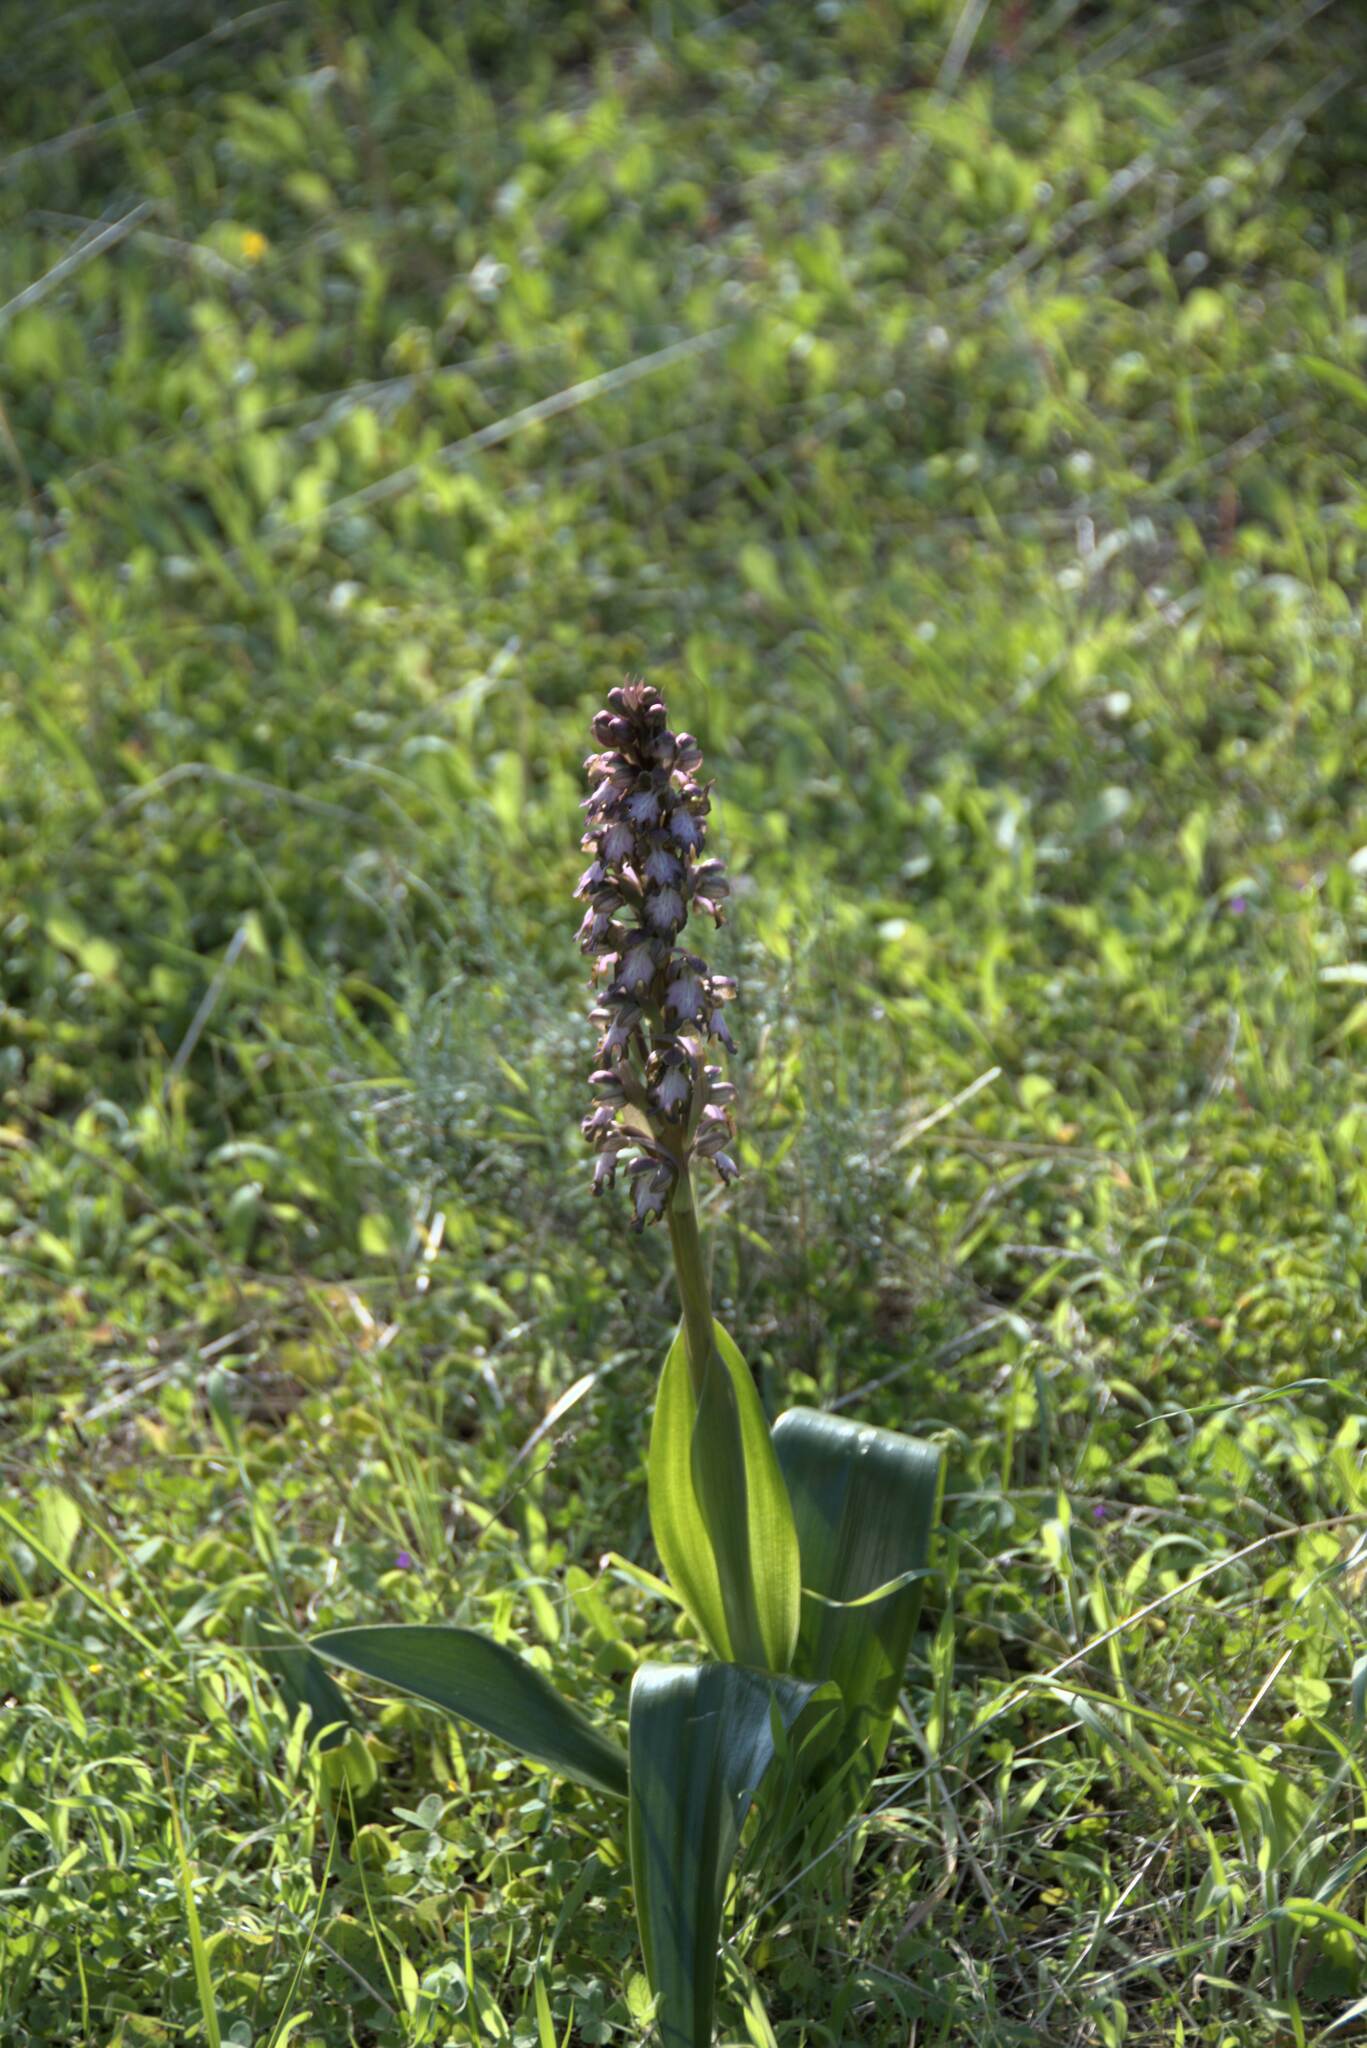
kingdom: Plantae
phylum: Tracheophyta
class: Liliopsida
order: Asparagales
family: Orchidaceae
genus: Himantoglossum
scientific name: Himantoglossum robertianum
